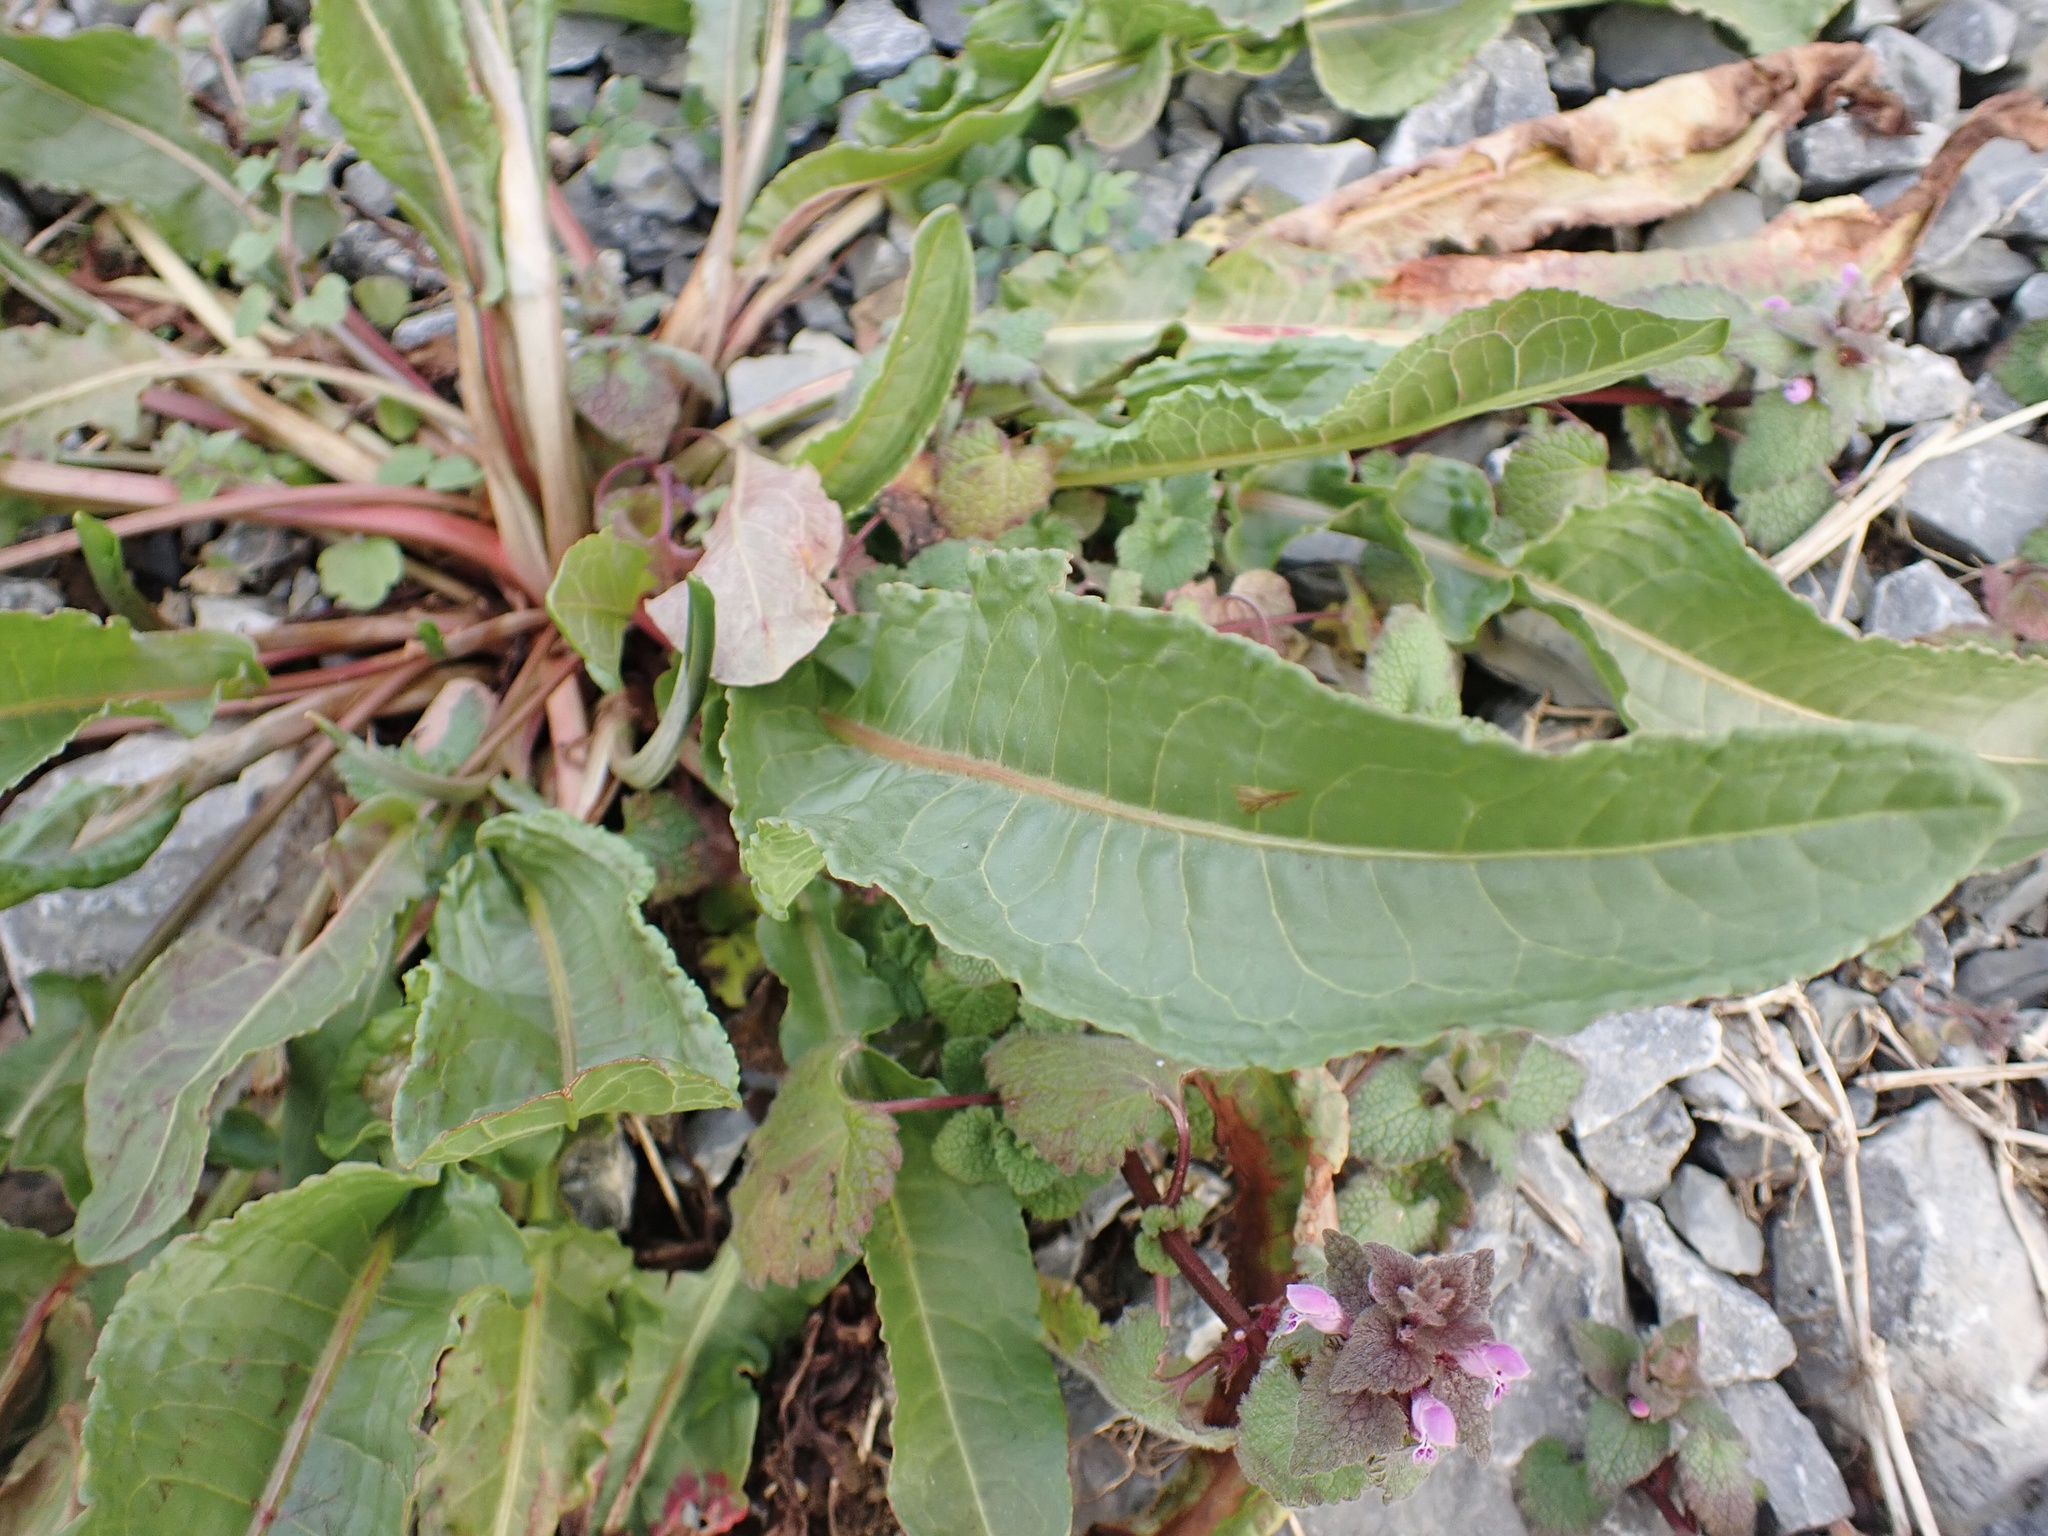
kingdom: Plantae
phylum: Tracheophyta
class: Magnoliopsida
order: Caryophyllales
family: Polygonaceae
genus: Rumex
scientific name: Rumex crispus
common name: Curled dock
